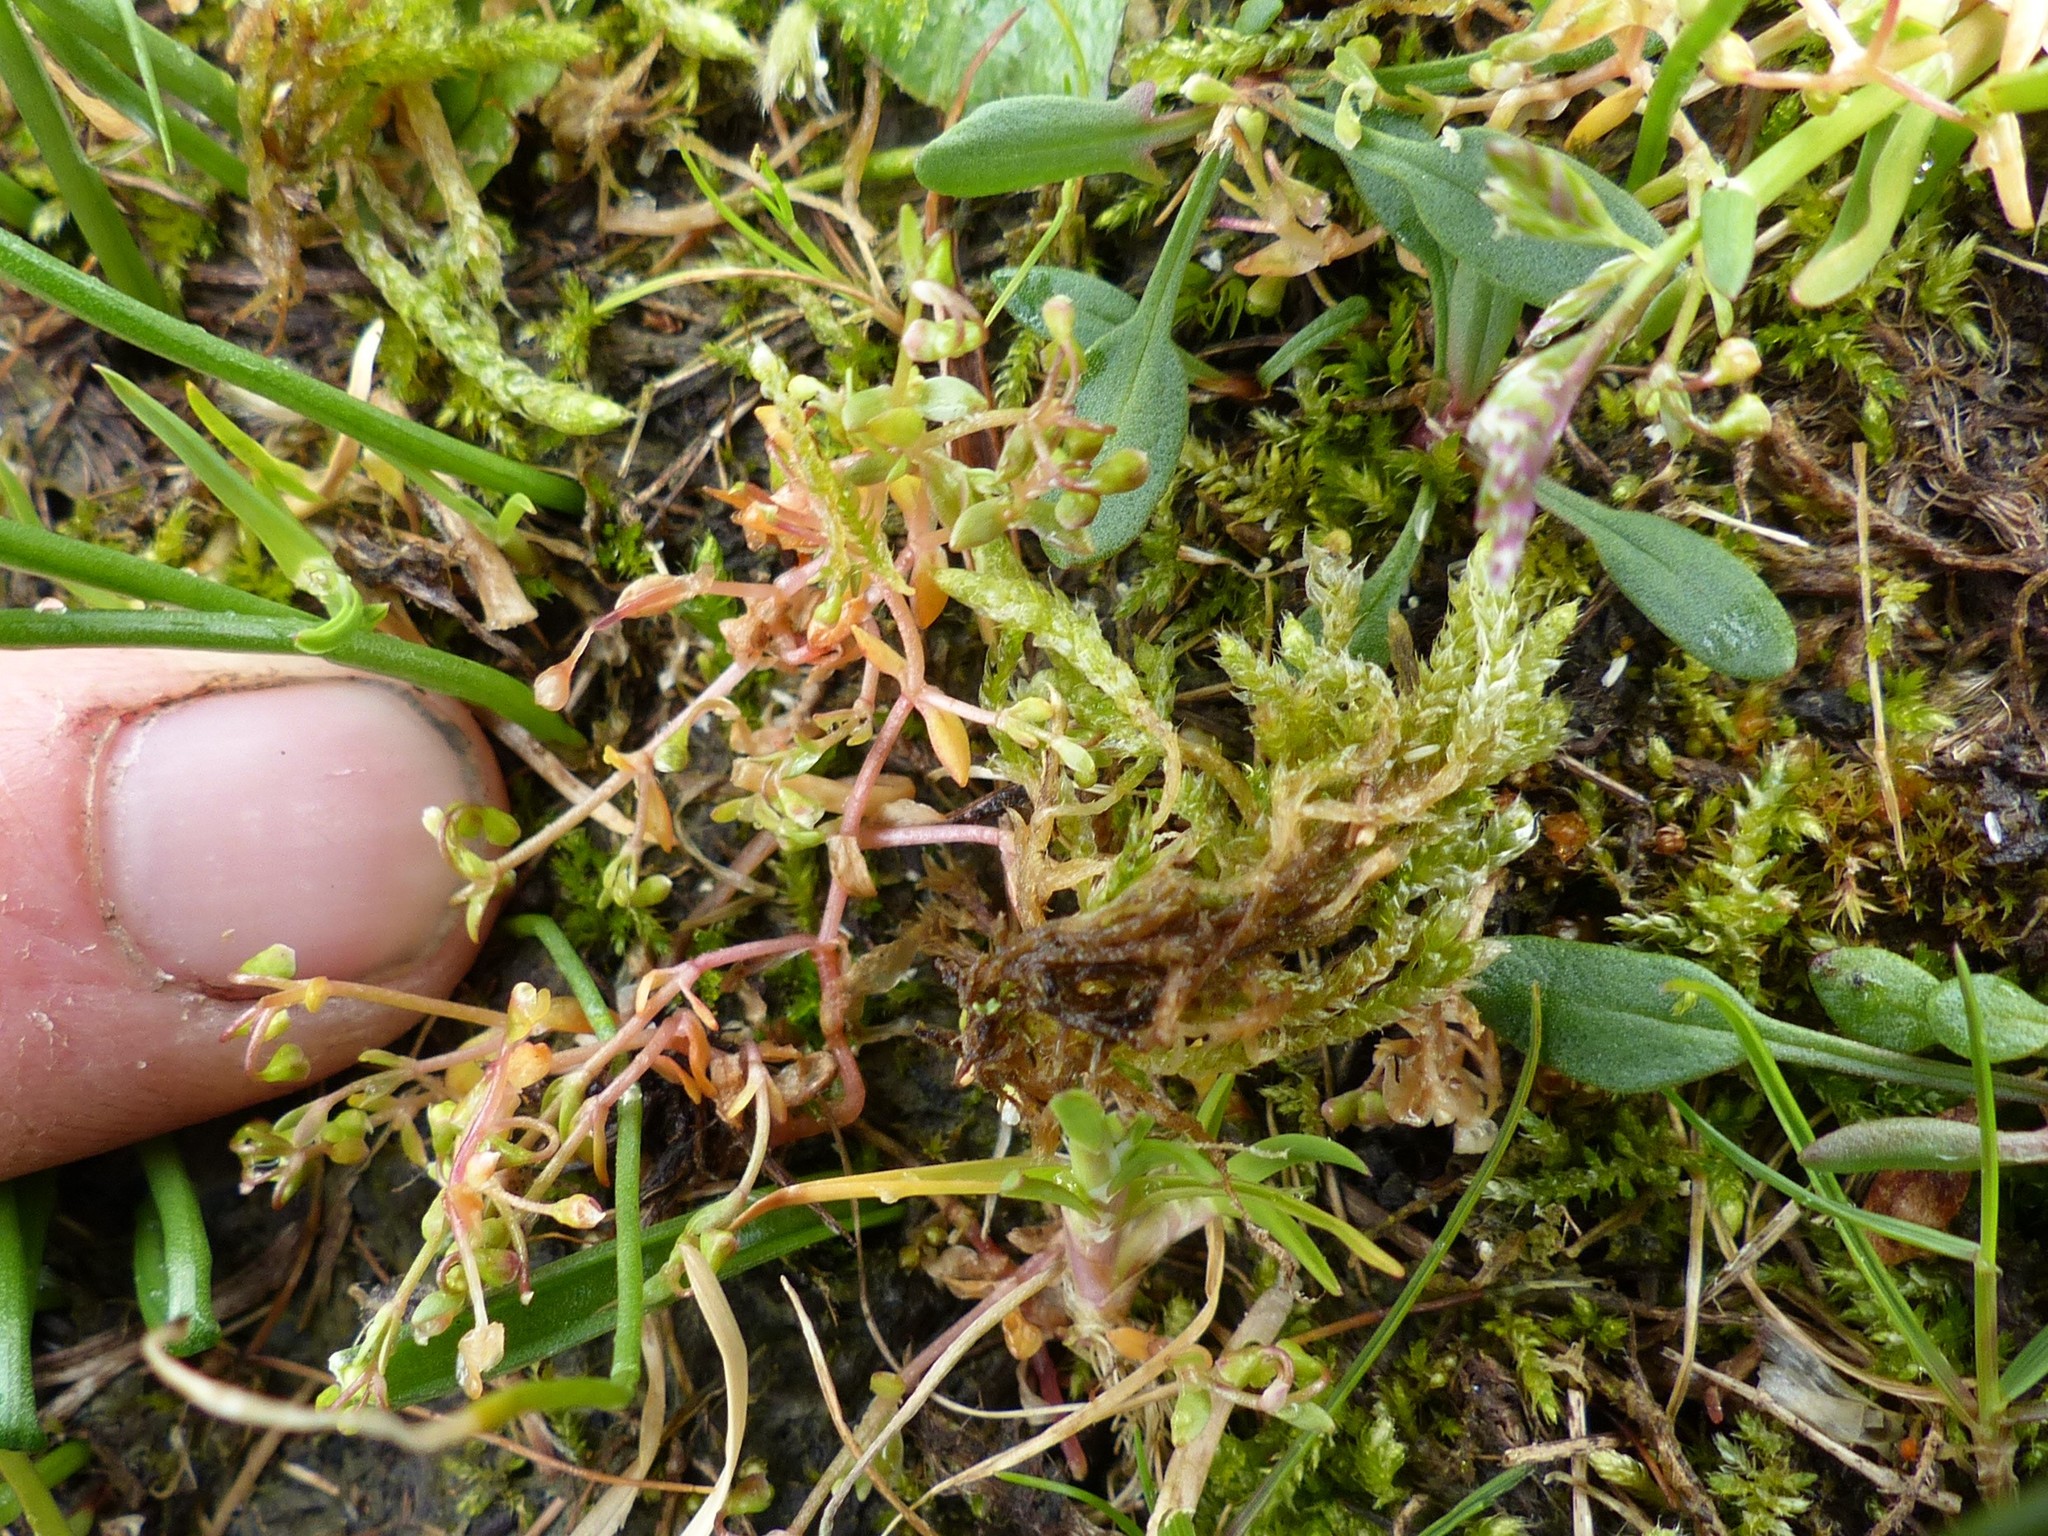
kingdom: Plantae
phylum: Tracheophyta
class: Magnoliopsida
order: Caryophyllales
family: Montiaceae
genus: Montia
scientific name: Montia fontana
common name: Blinks
